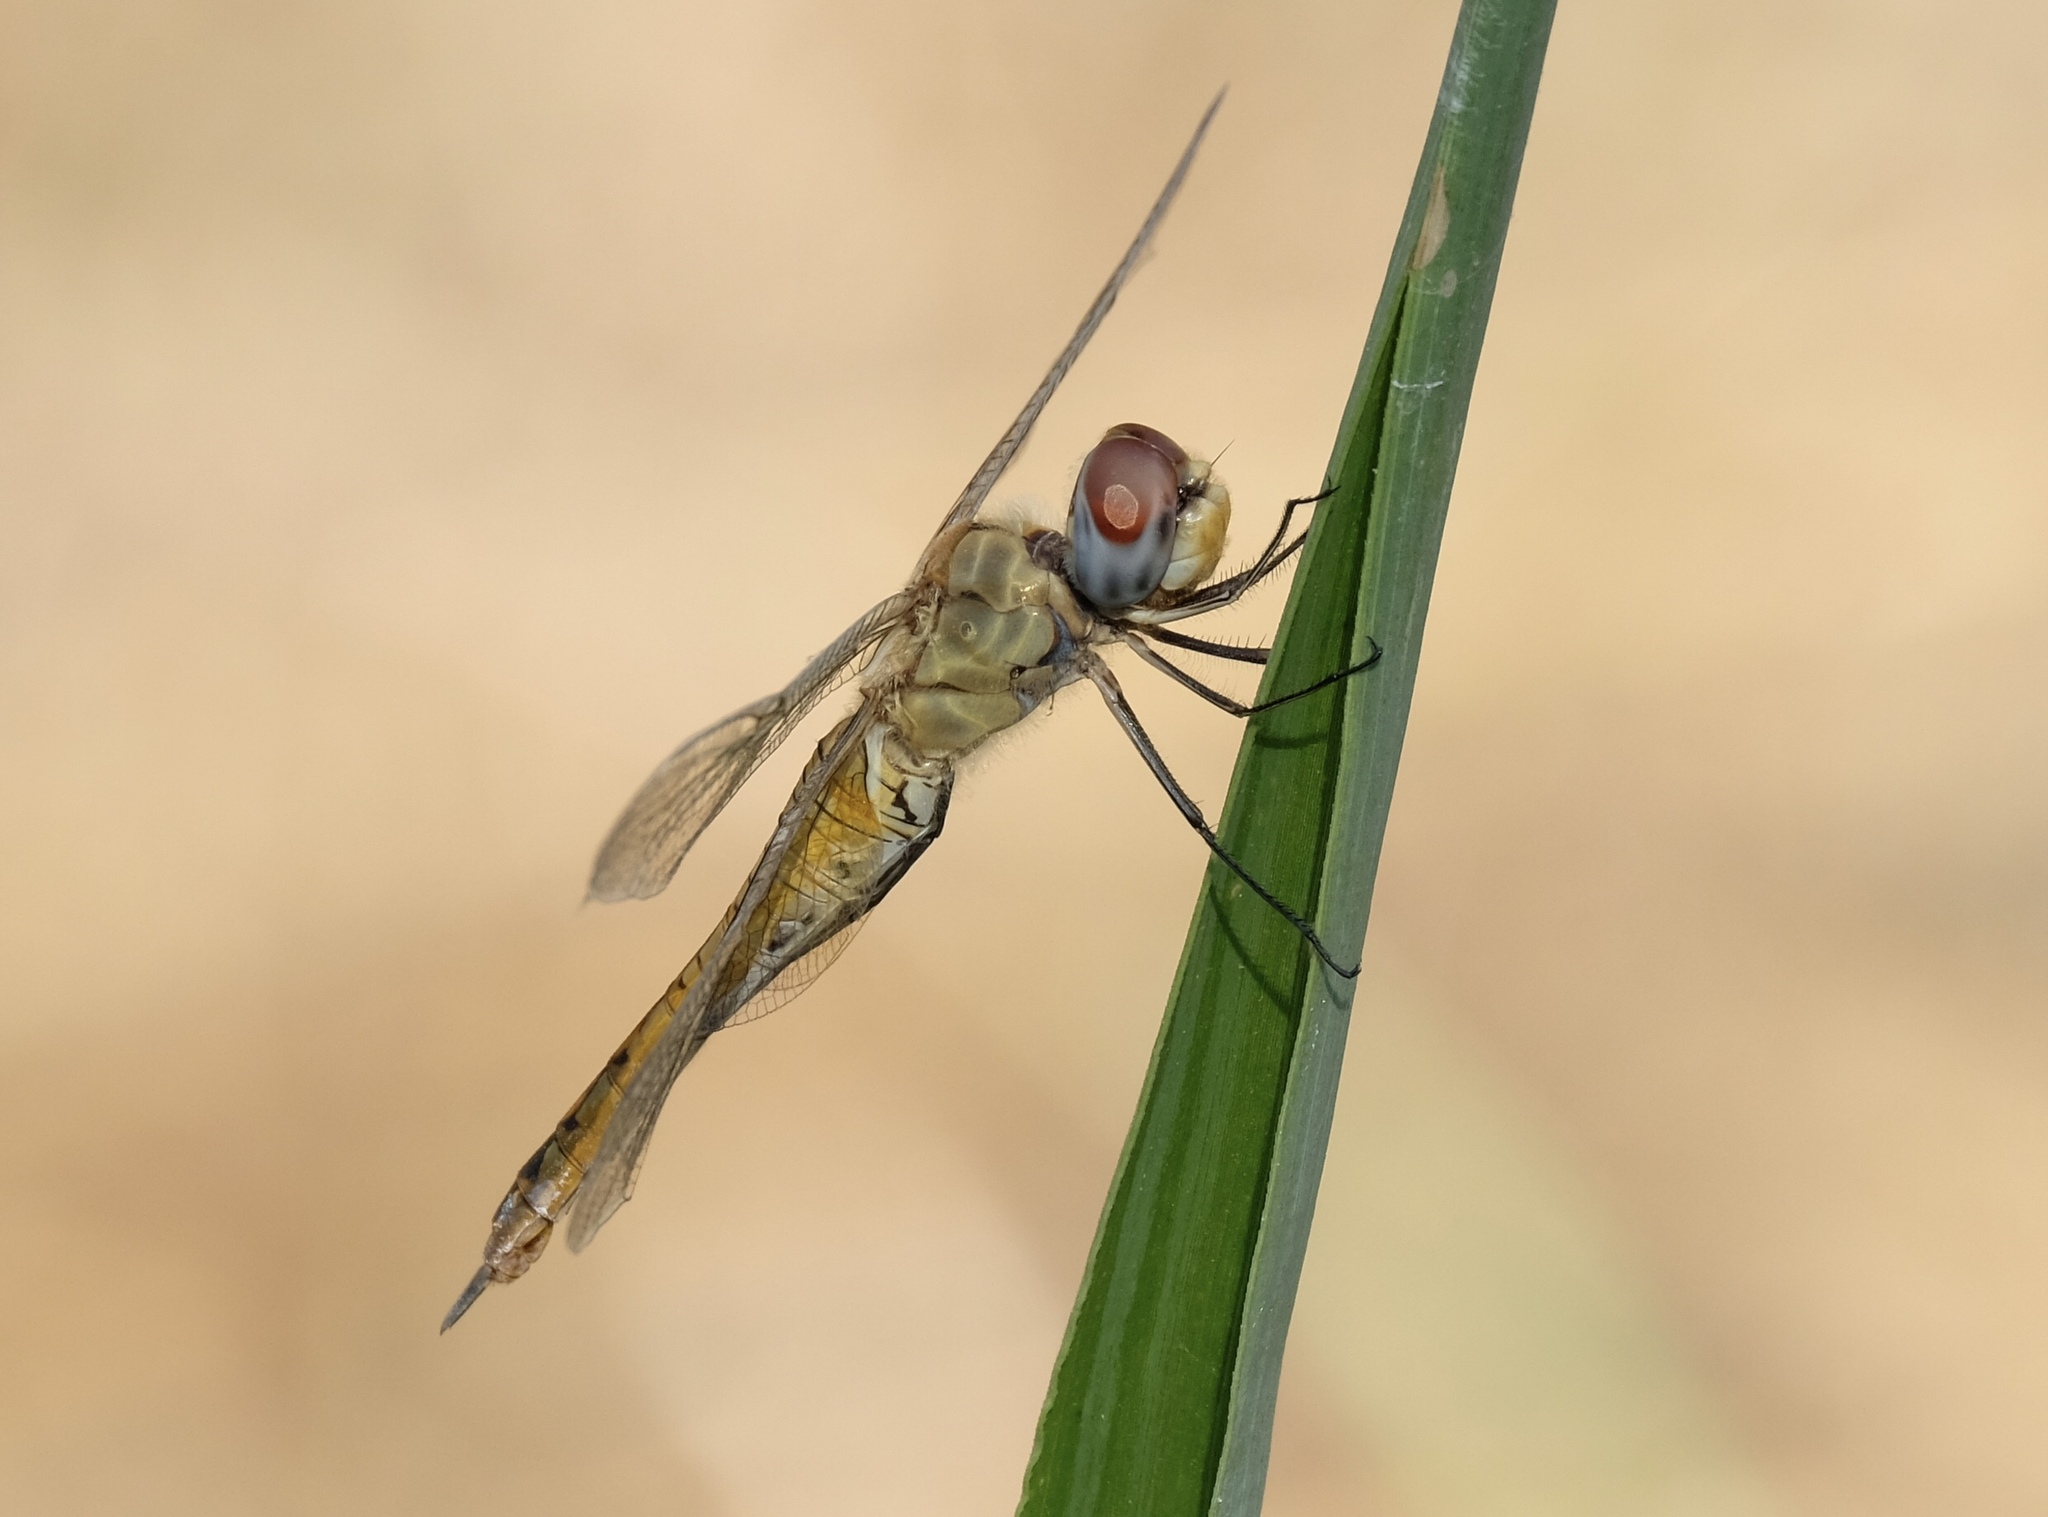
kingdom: Animalia
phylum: Arthropoda
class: Insecta
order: Odonata
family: Libellulidae
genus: Pantala
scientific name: Pantala flavescens
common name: Wandering glider
